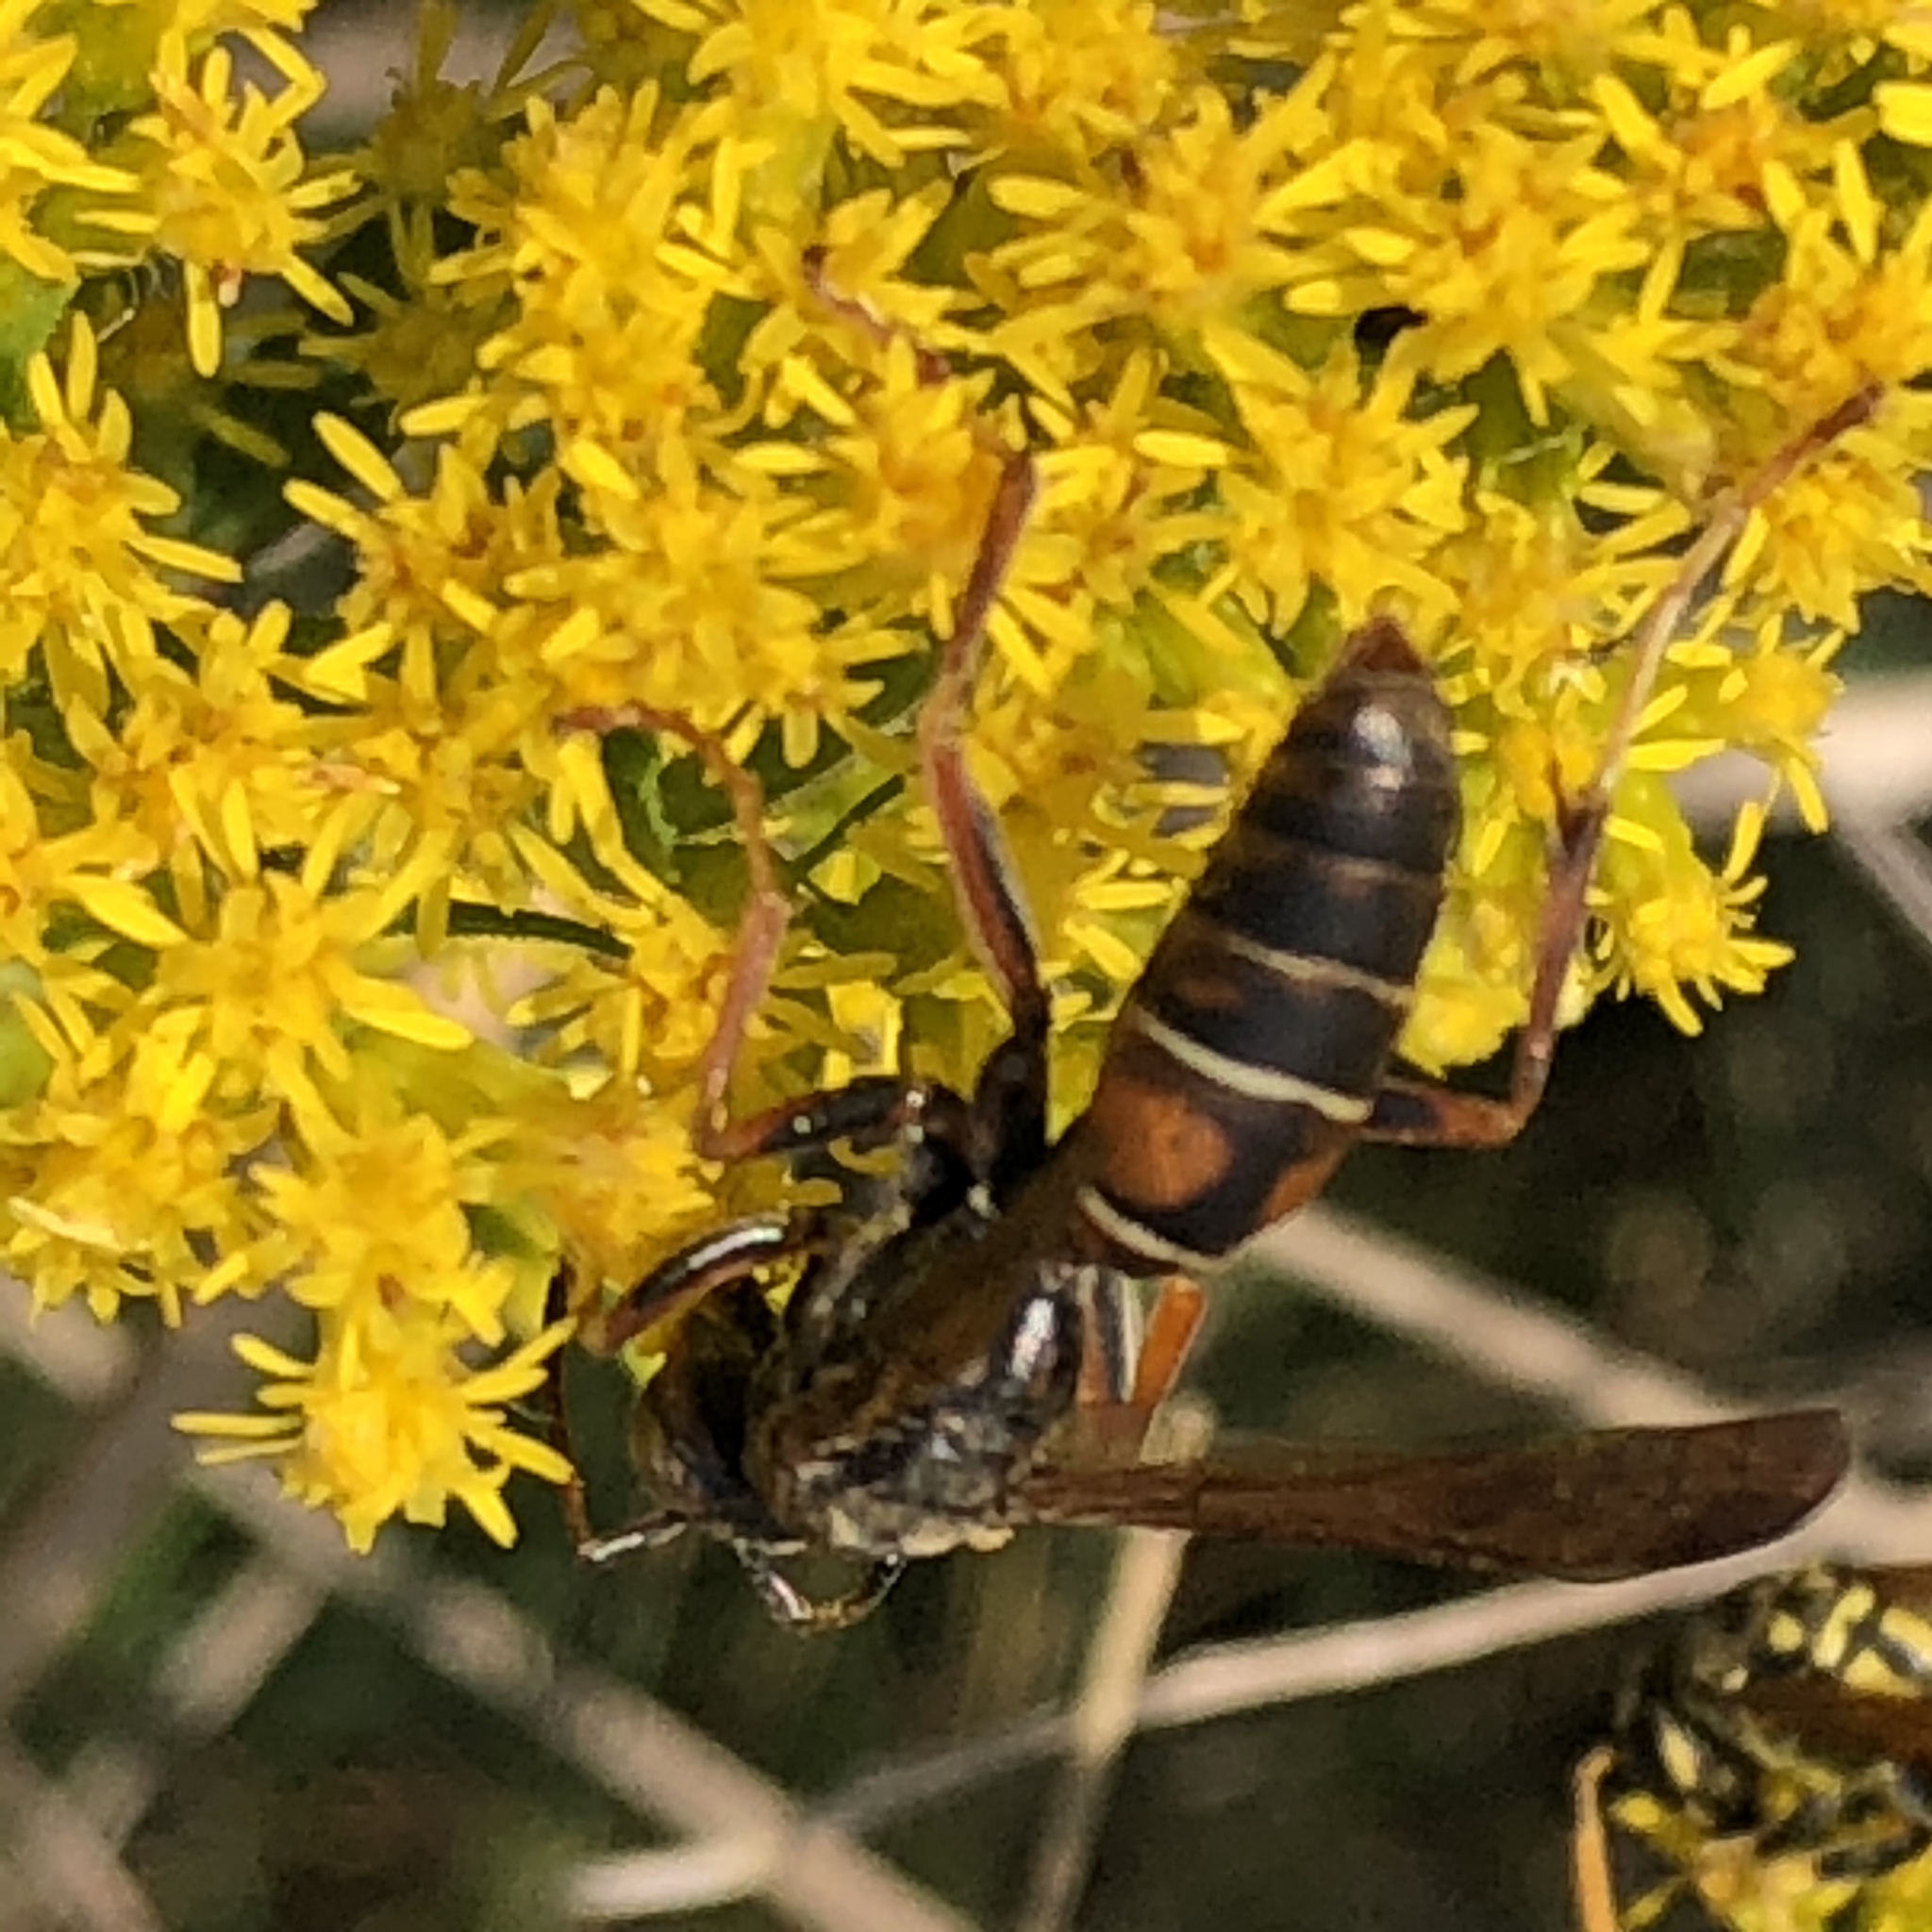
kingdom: Animalia
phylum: Arthropoda
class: Insecta
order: Hymenoptera
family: Eumenidae
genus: Polistes
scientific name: Polistes fuscatus
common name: Dark paper wasp
